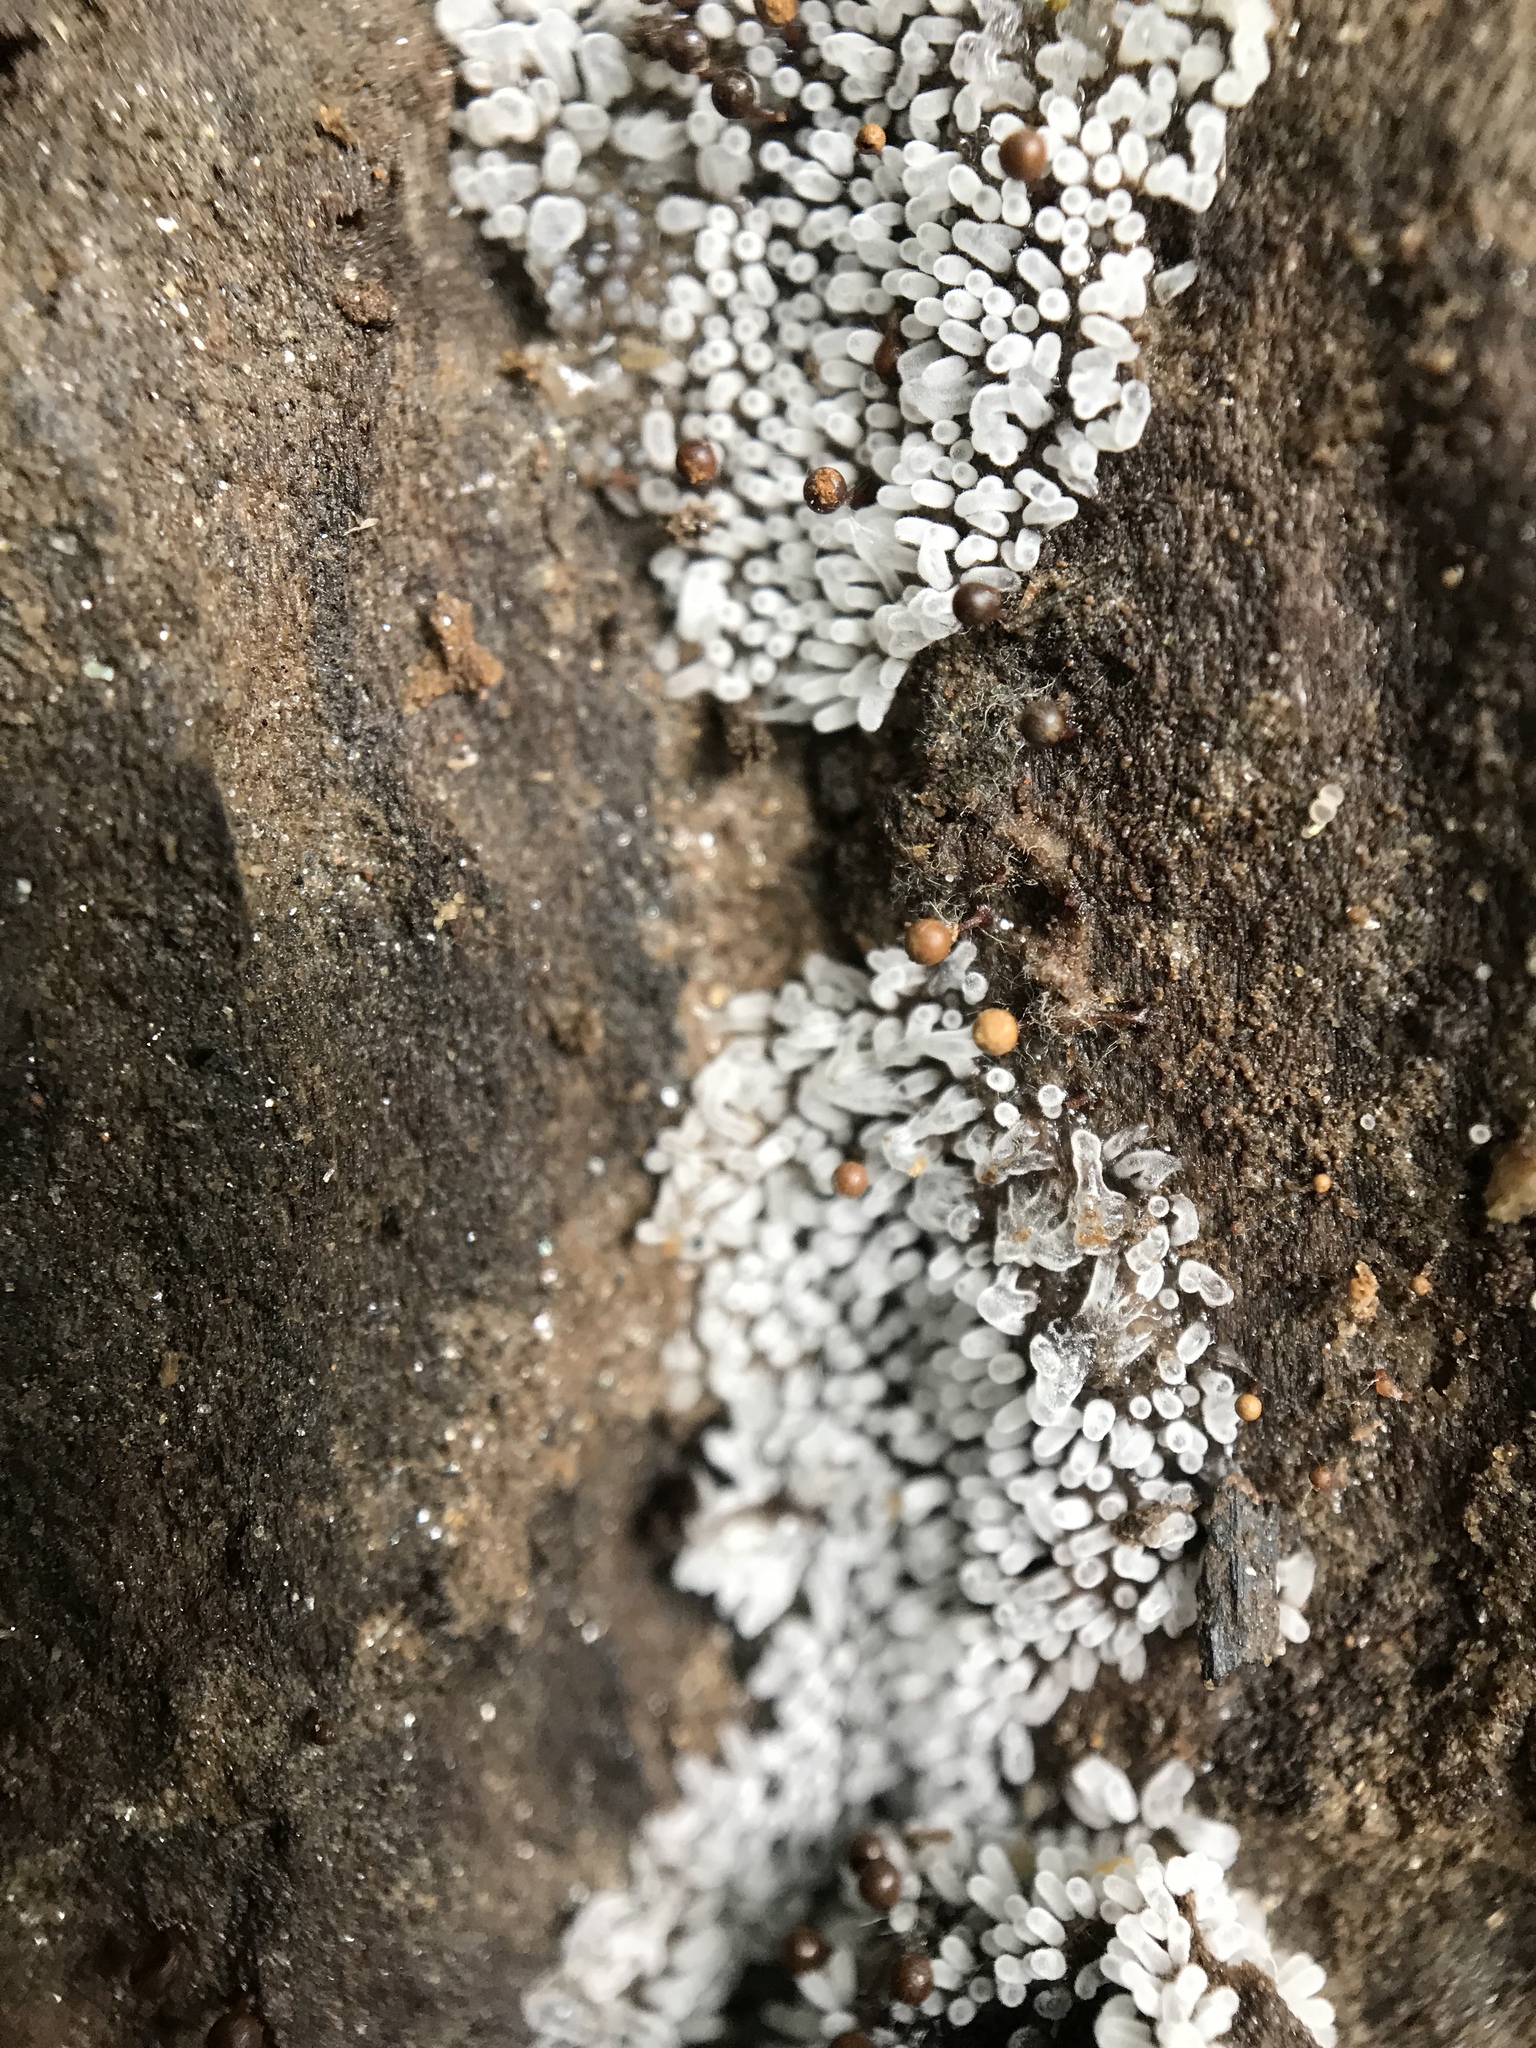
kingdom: Protozoa
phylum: Mycetozoa
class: Protosteliomycetes
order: Ceratiomyxales
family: Ceratiomyxaceae
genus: Ceratiomyxa
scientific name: Ceratiomyxa fruticulosa
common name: Honeycomb coral slime mold
